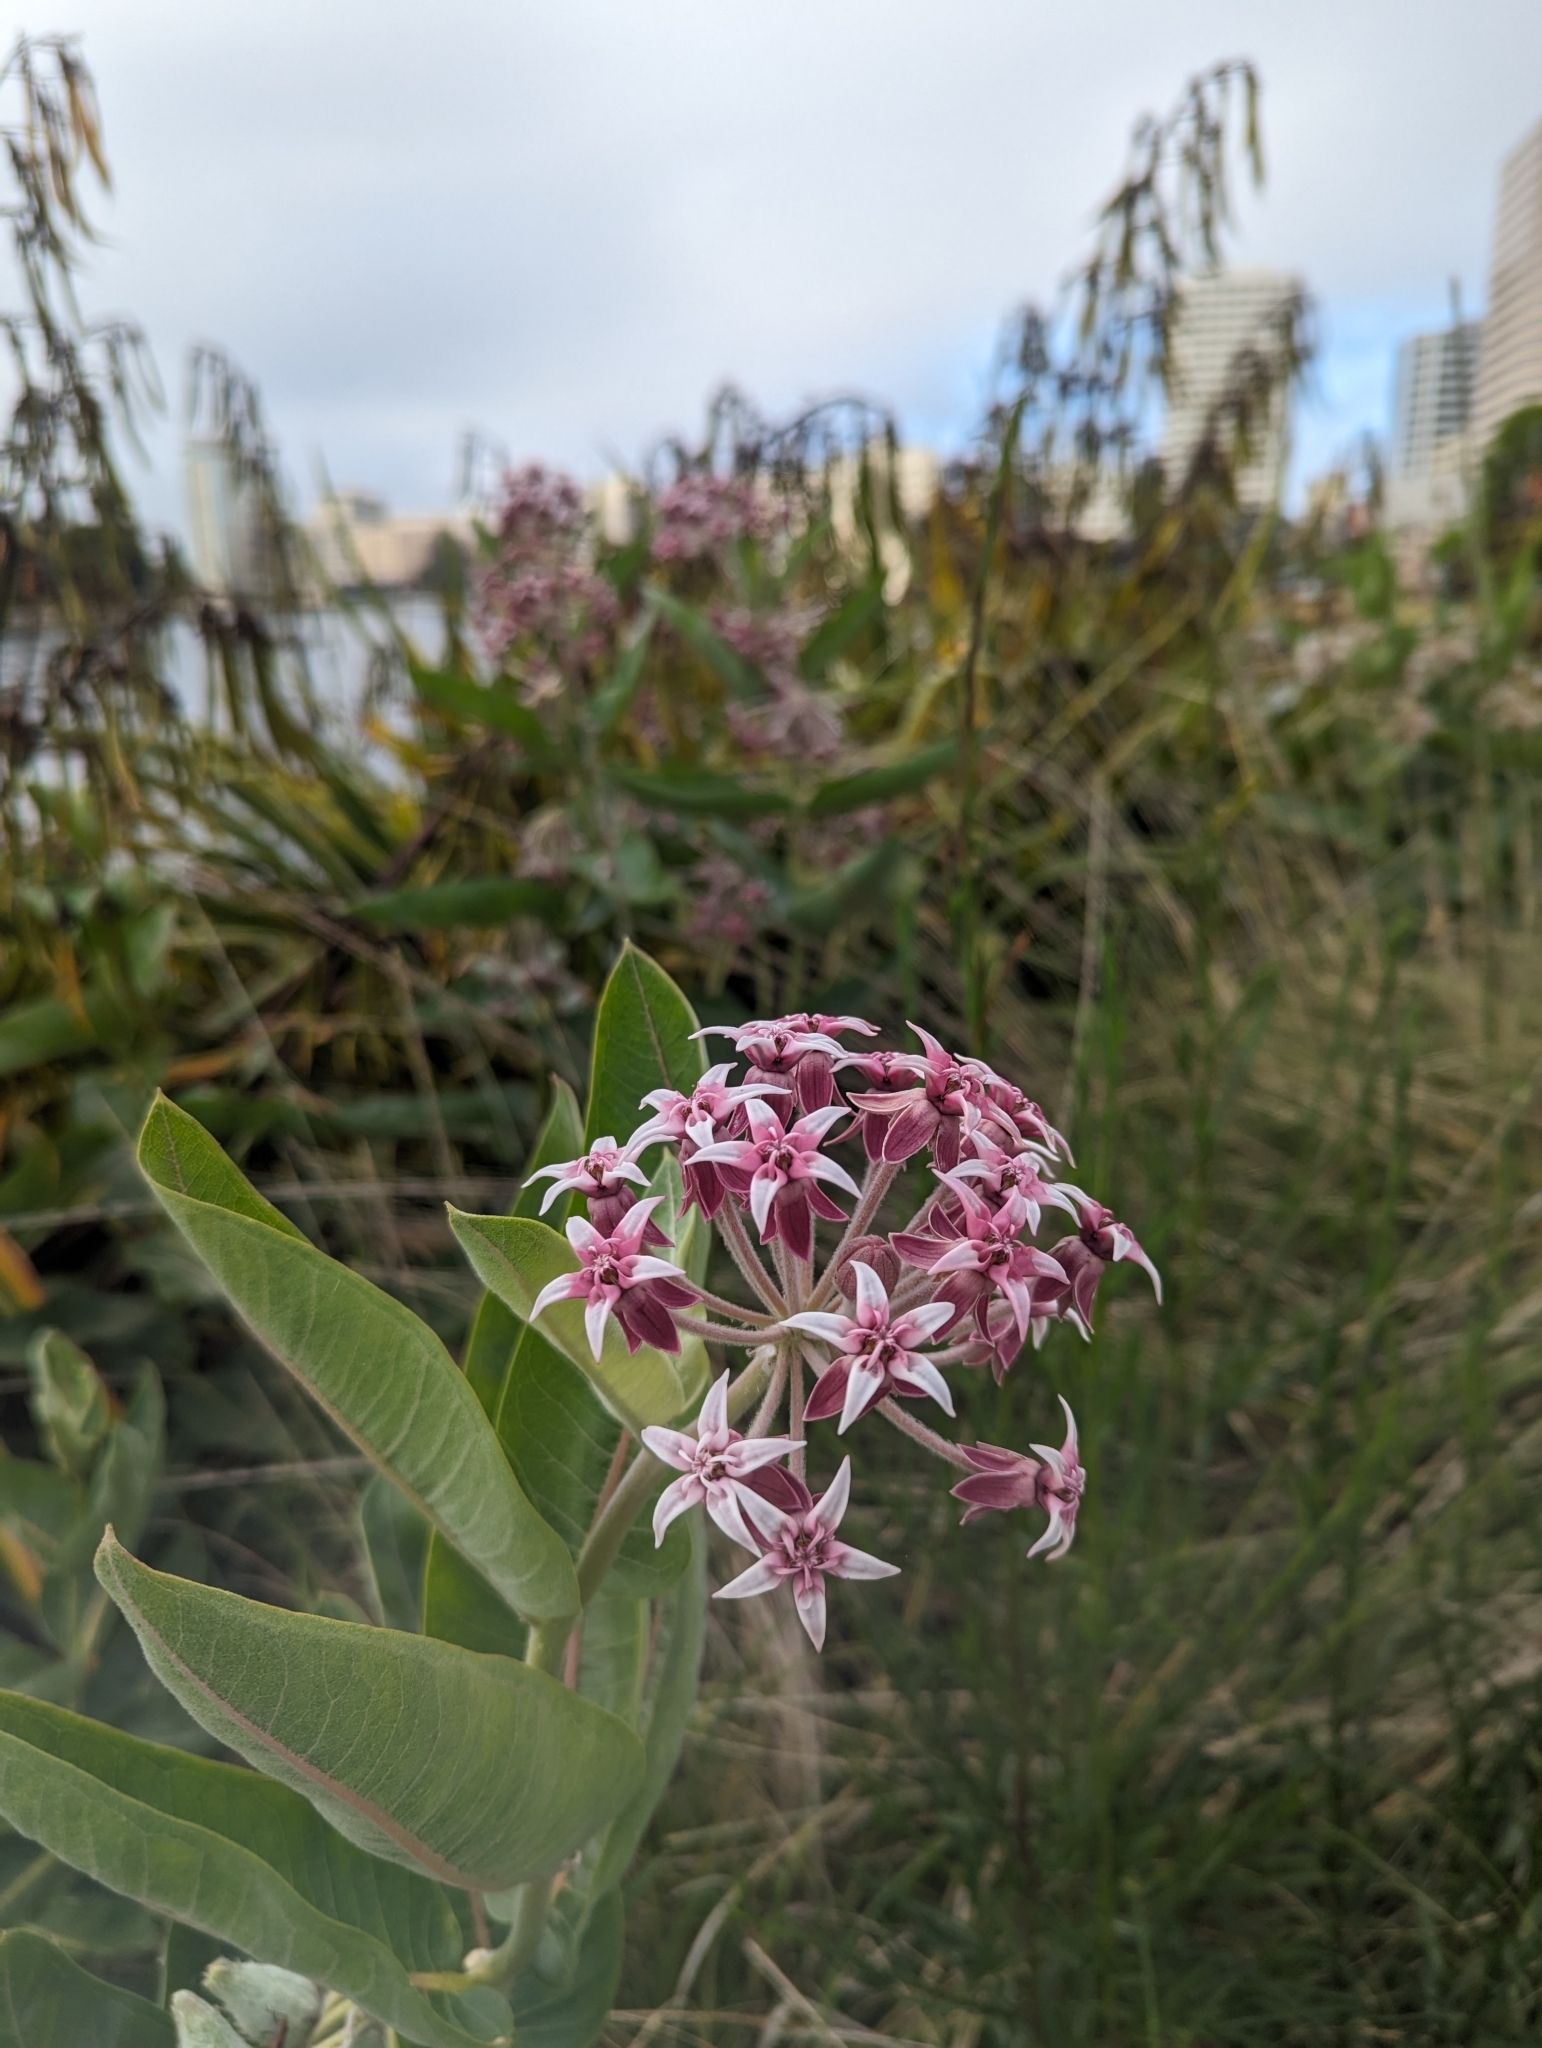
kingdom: Plantae
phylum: Tracheophyta
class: Magnoliopsida
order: Gentianales
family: Apocynaceae
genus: Asclepias
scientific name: Asclepias speciosa
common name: Showy milkweed
